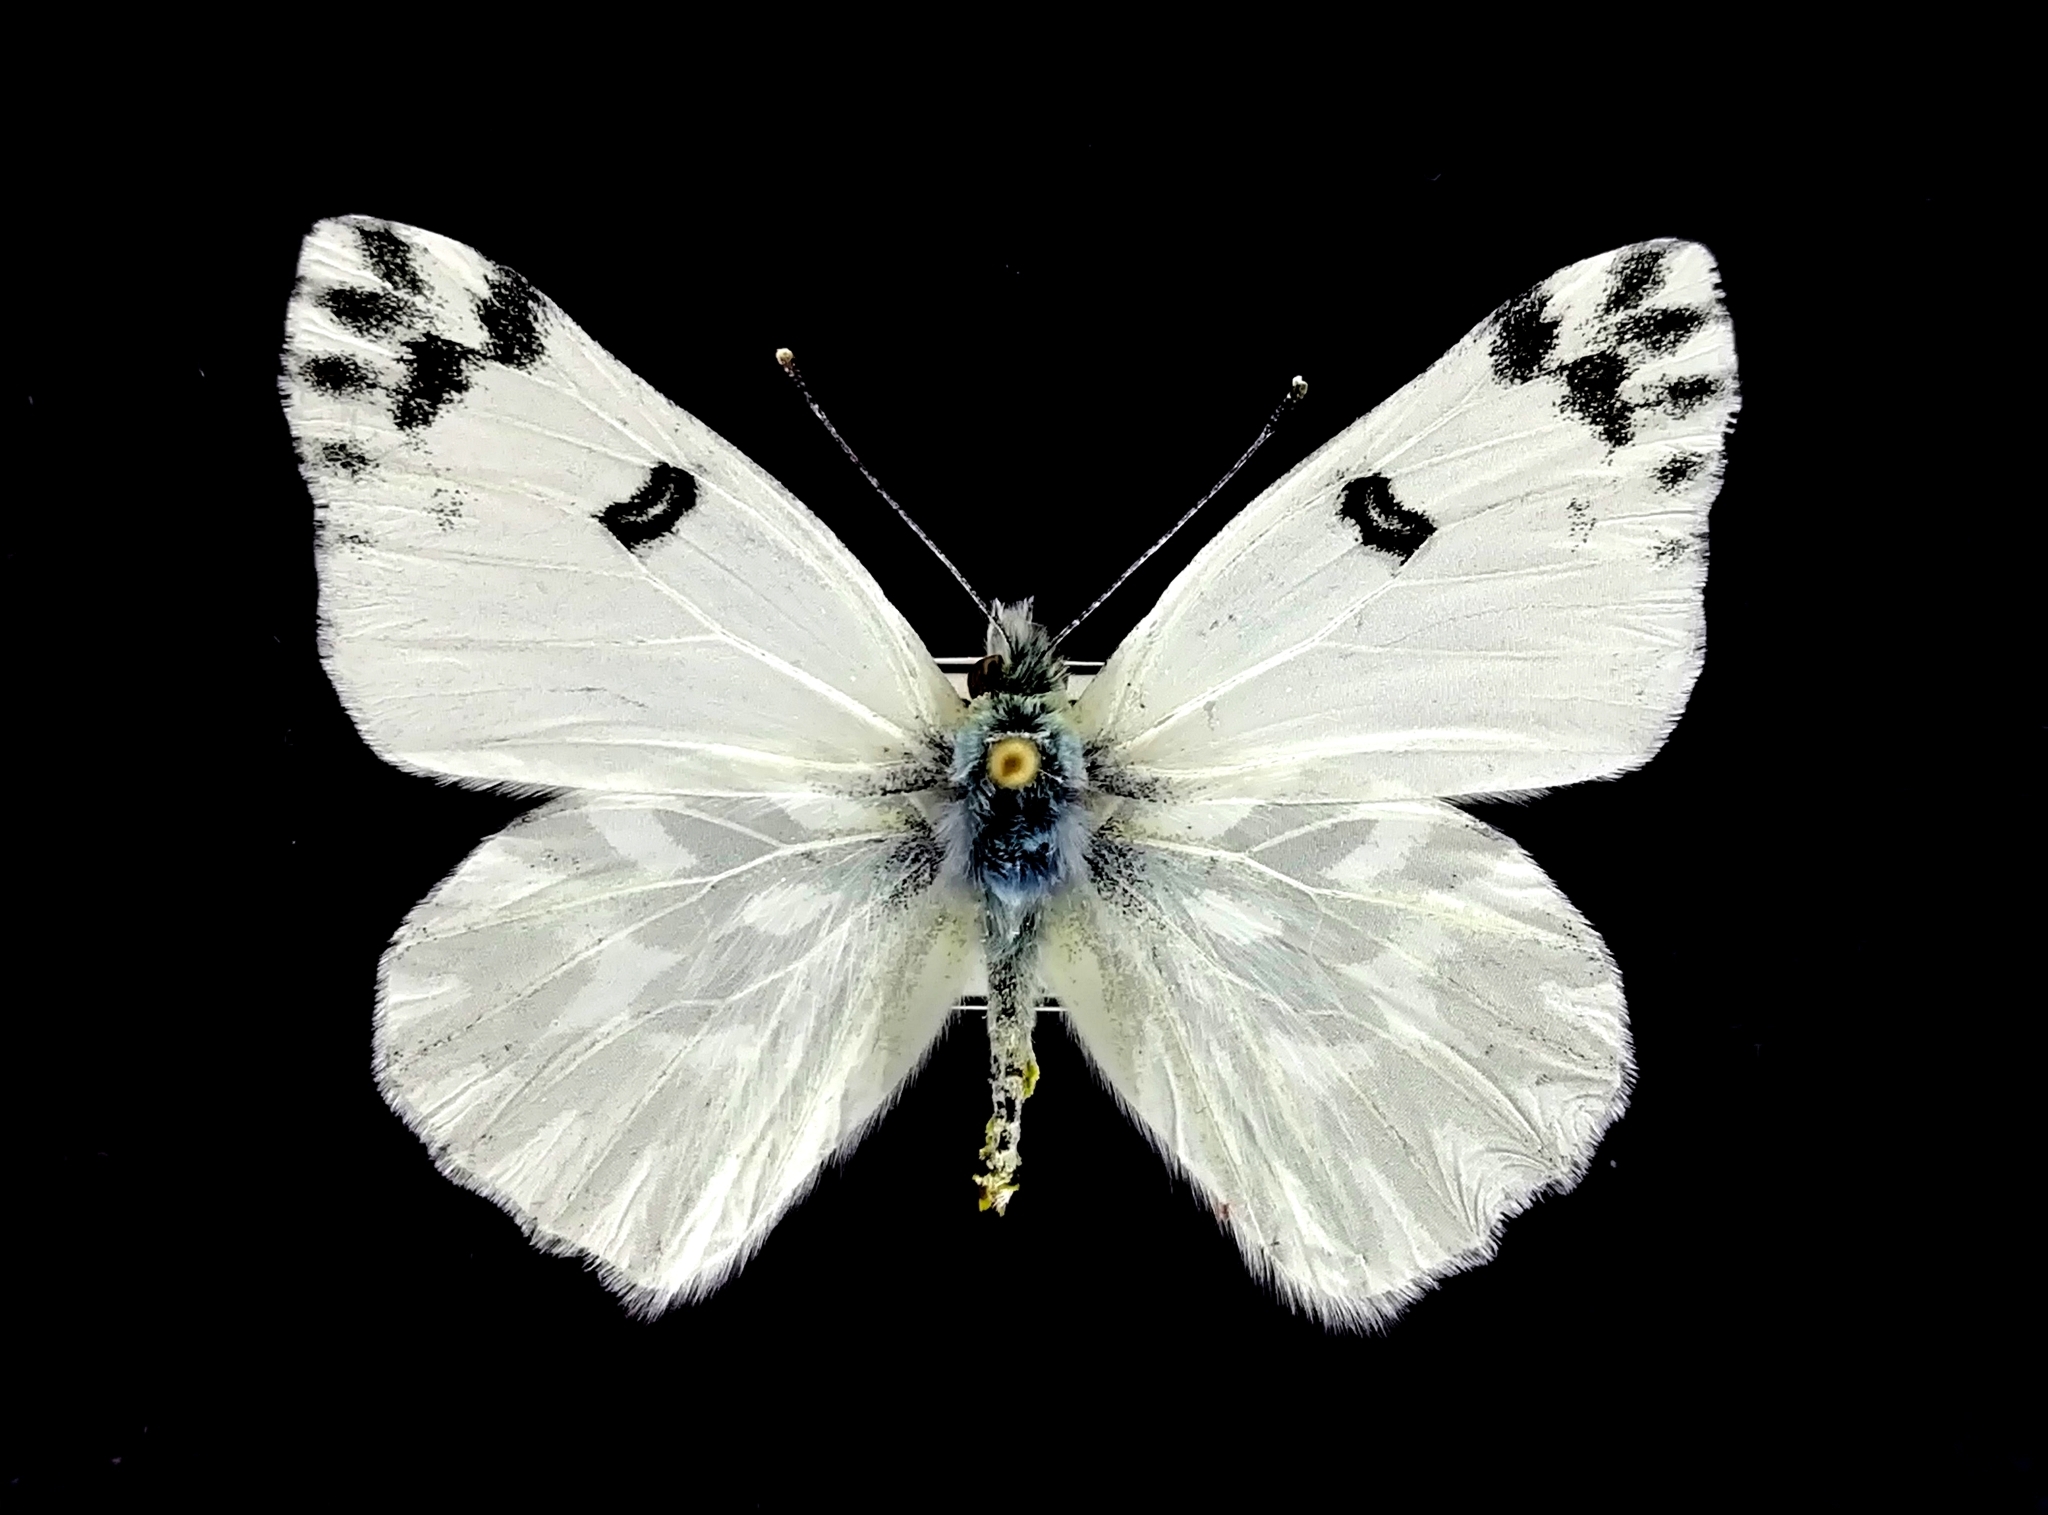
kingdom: Animalia
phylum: Arthropoda
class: Insecta
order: Lepidoptera
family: Pieridae
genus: Pontia
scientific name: Pontia chloridice
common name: Small bath white
